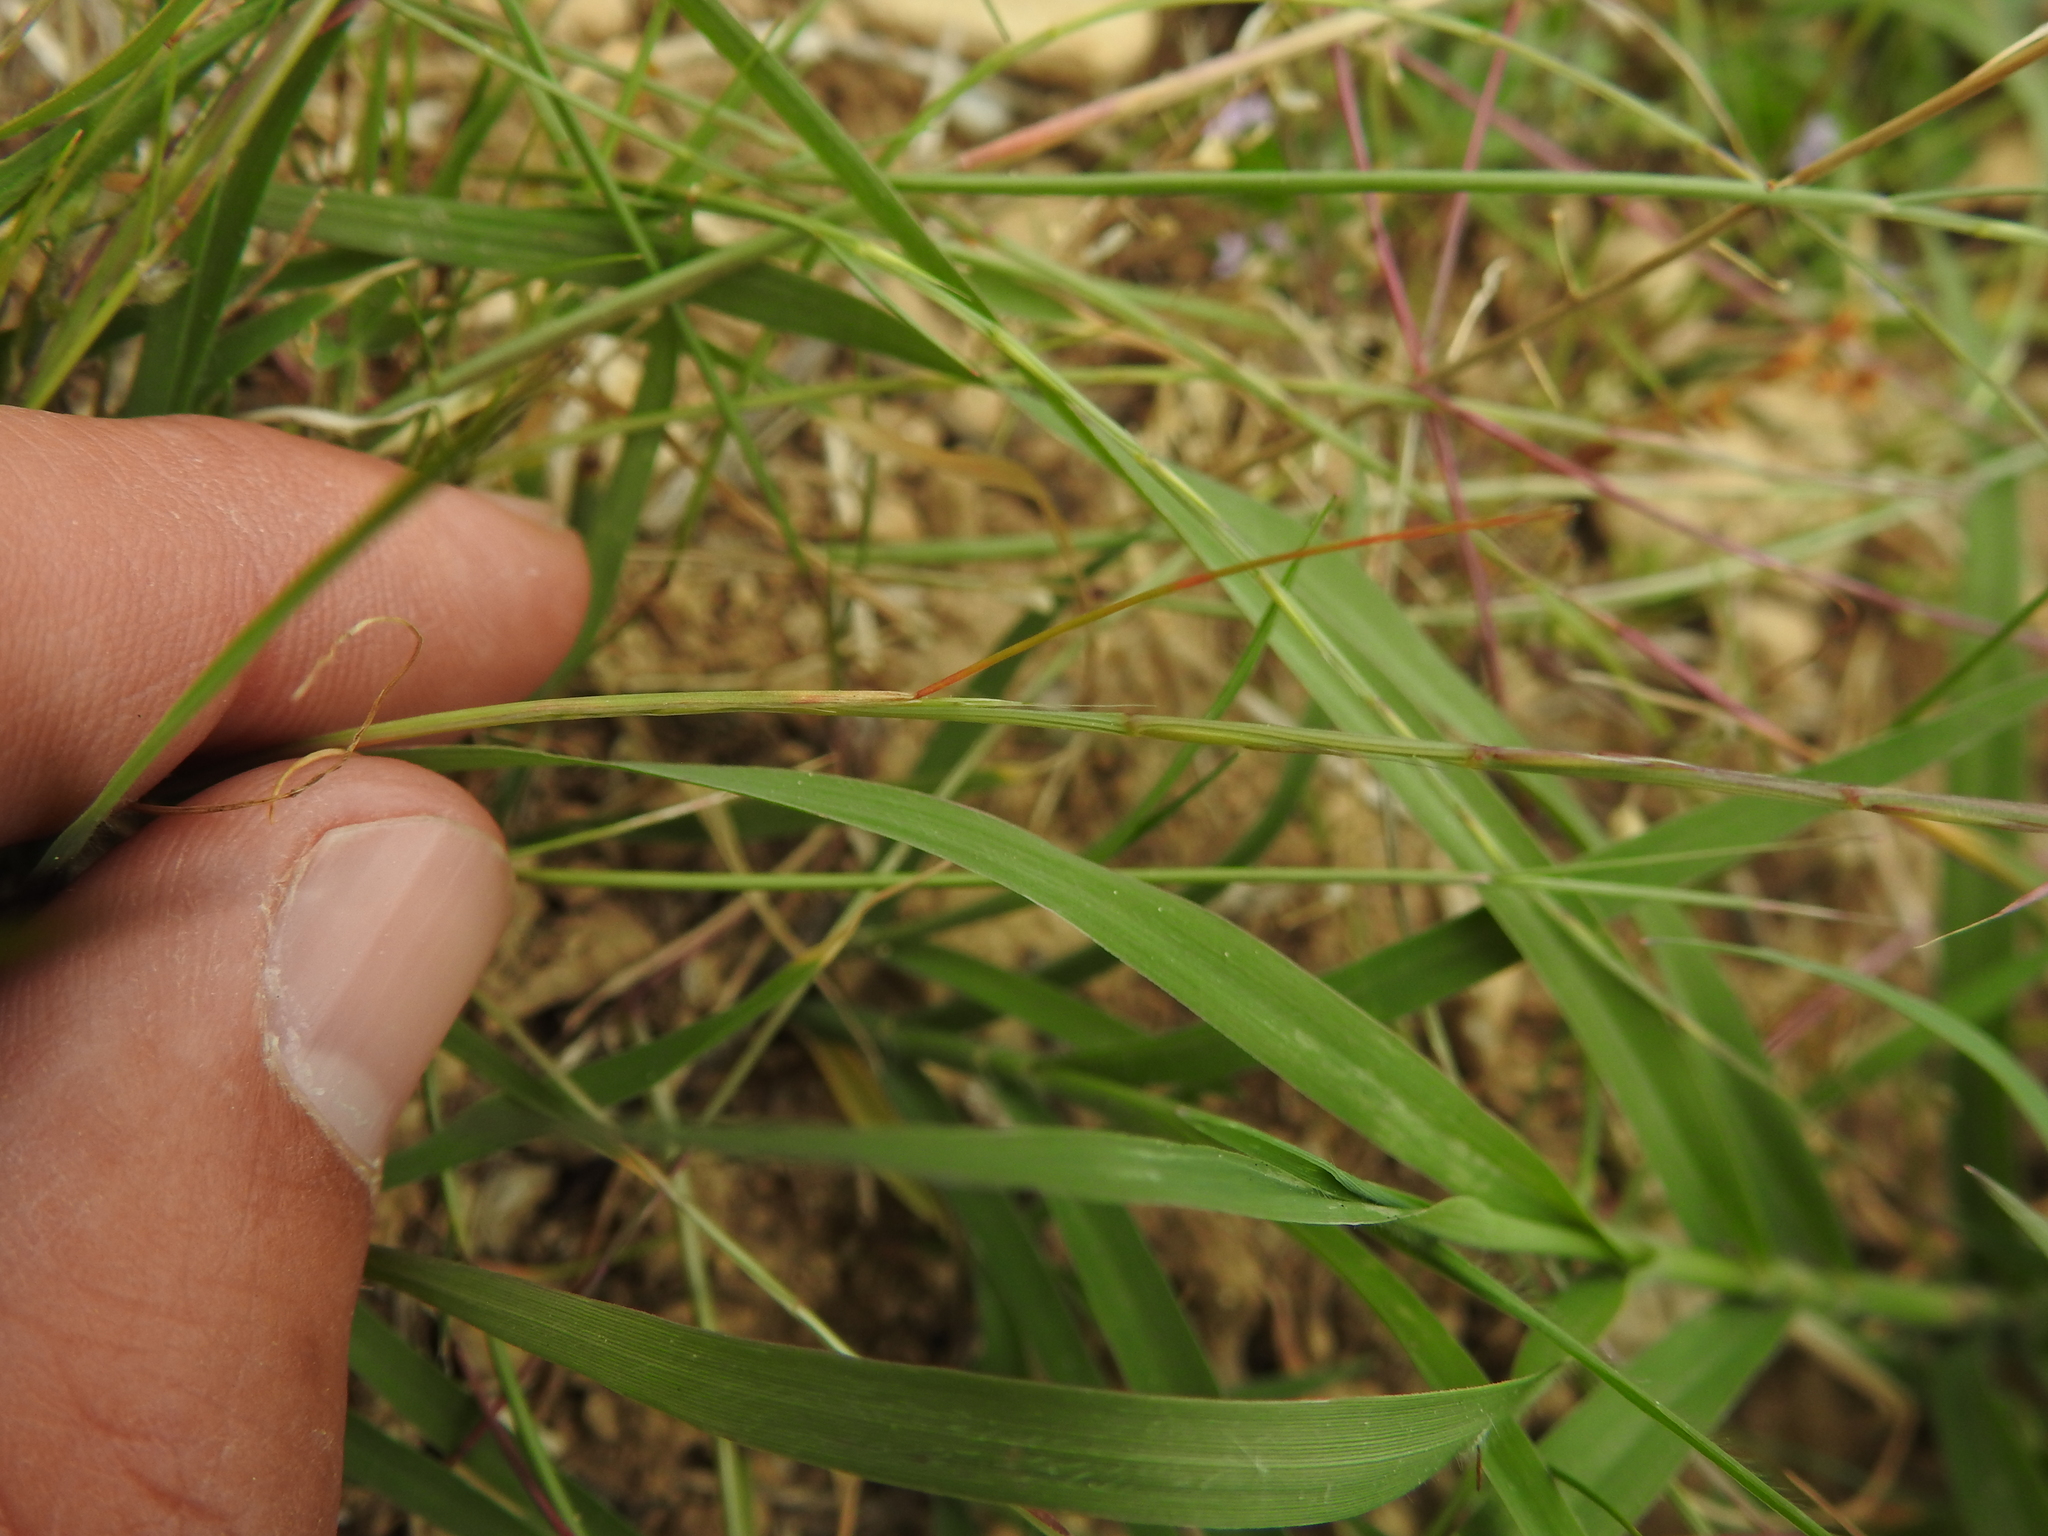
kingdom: Plantae
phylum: Tracheophyta
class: Liliopsida
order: Poales
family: Poaceae
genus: Festuca
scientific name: Festuca incurva
